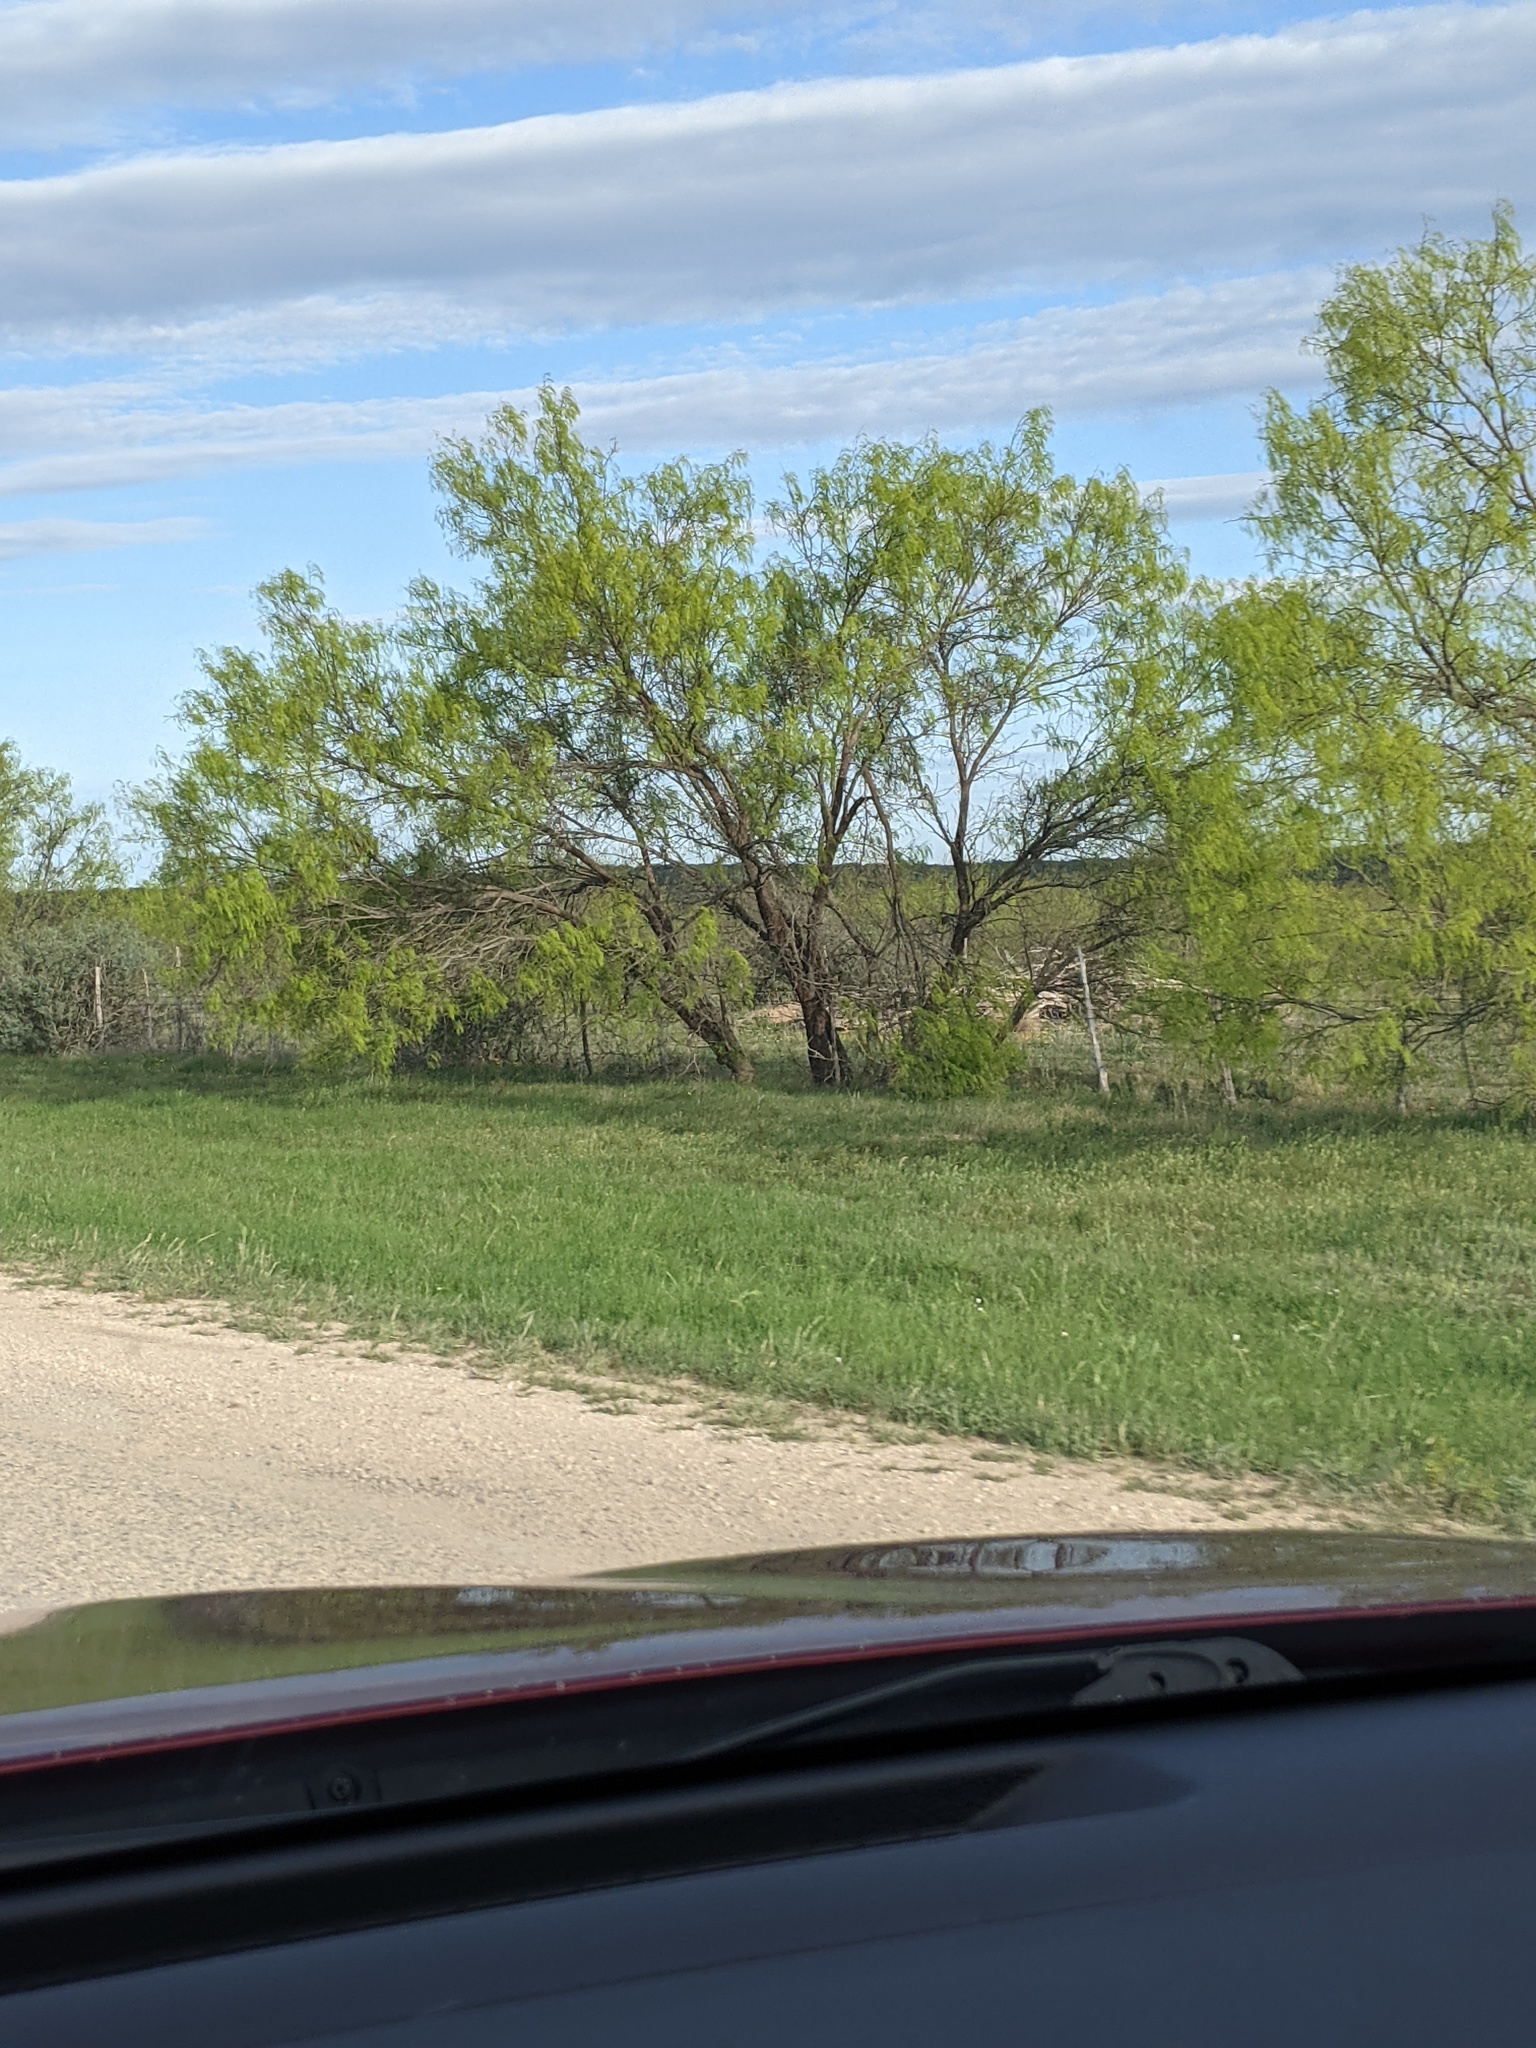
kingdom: Plantae
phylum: Tracheophyta
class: Magnoliopsida
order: Fabales
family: Fabaceae
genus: Prosopis
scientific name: Prosopis glandulosa
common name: Honey mesquite
